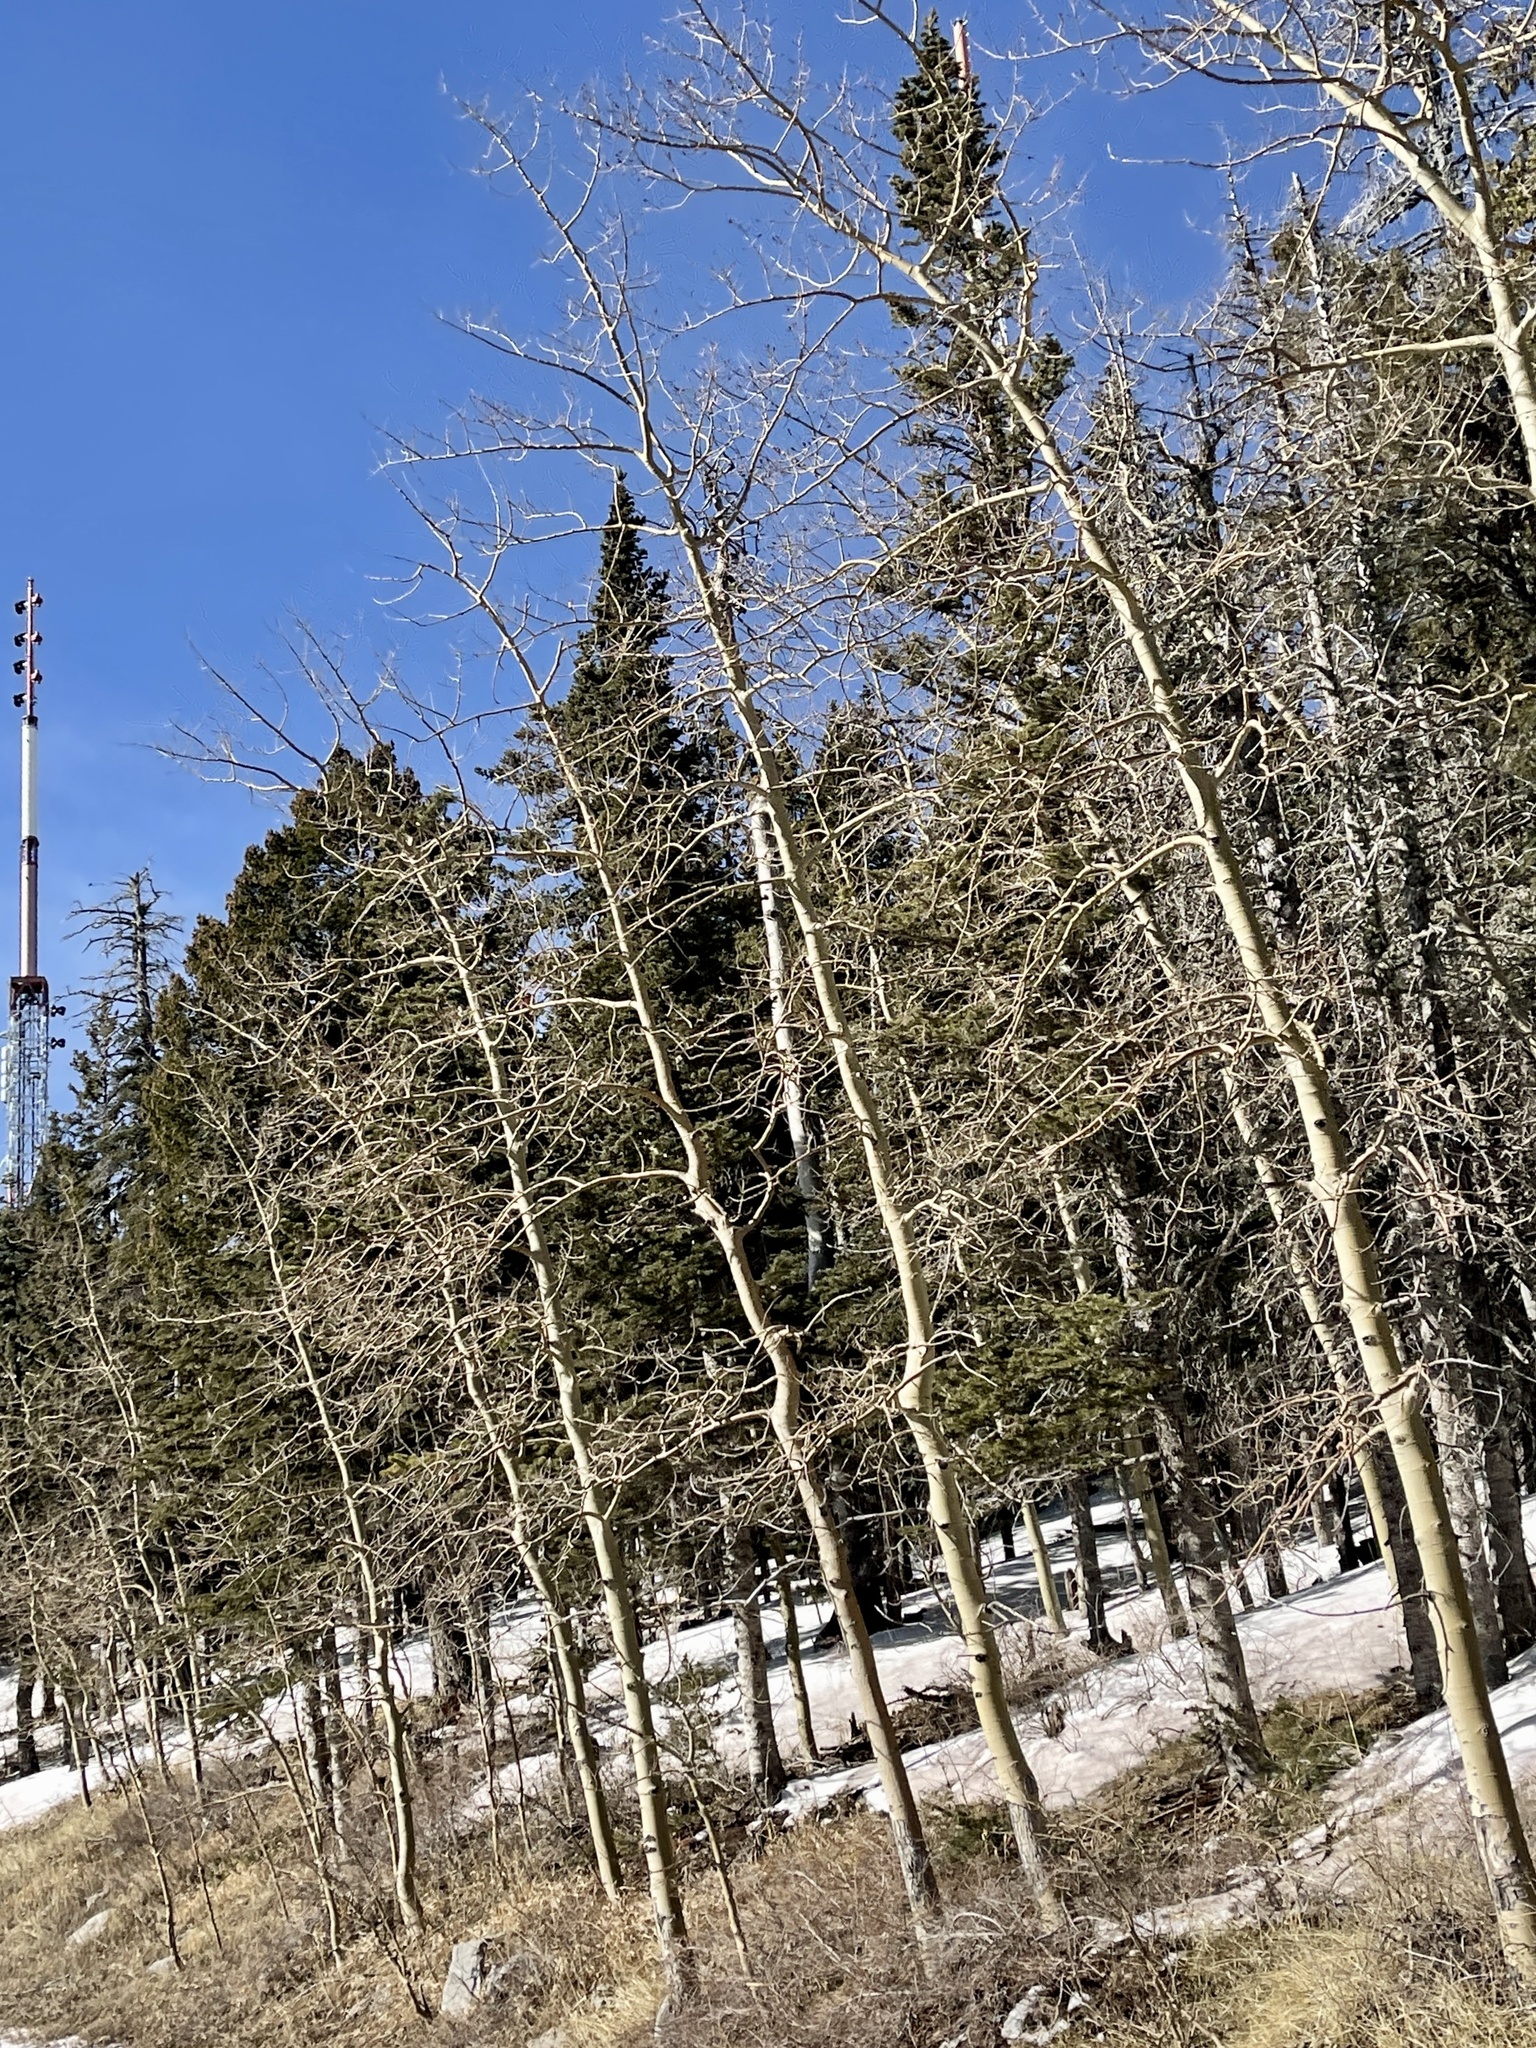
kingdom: Plantae
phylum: Tracheophyta
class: Magnoliopsida
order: Malpighiales
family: Salicaceae
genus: Populus
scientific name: Populus tremuloides
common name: Quaking aspen
